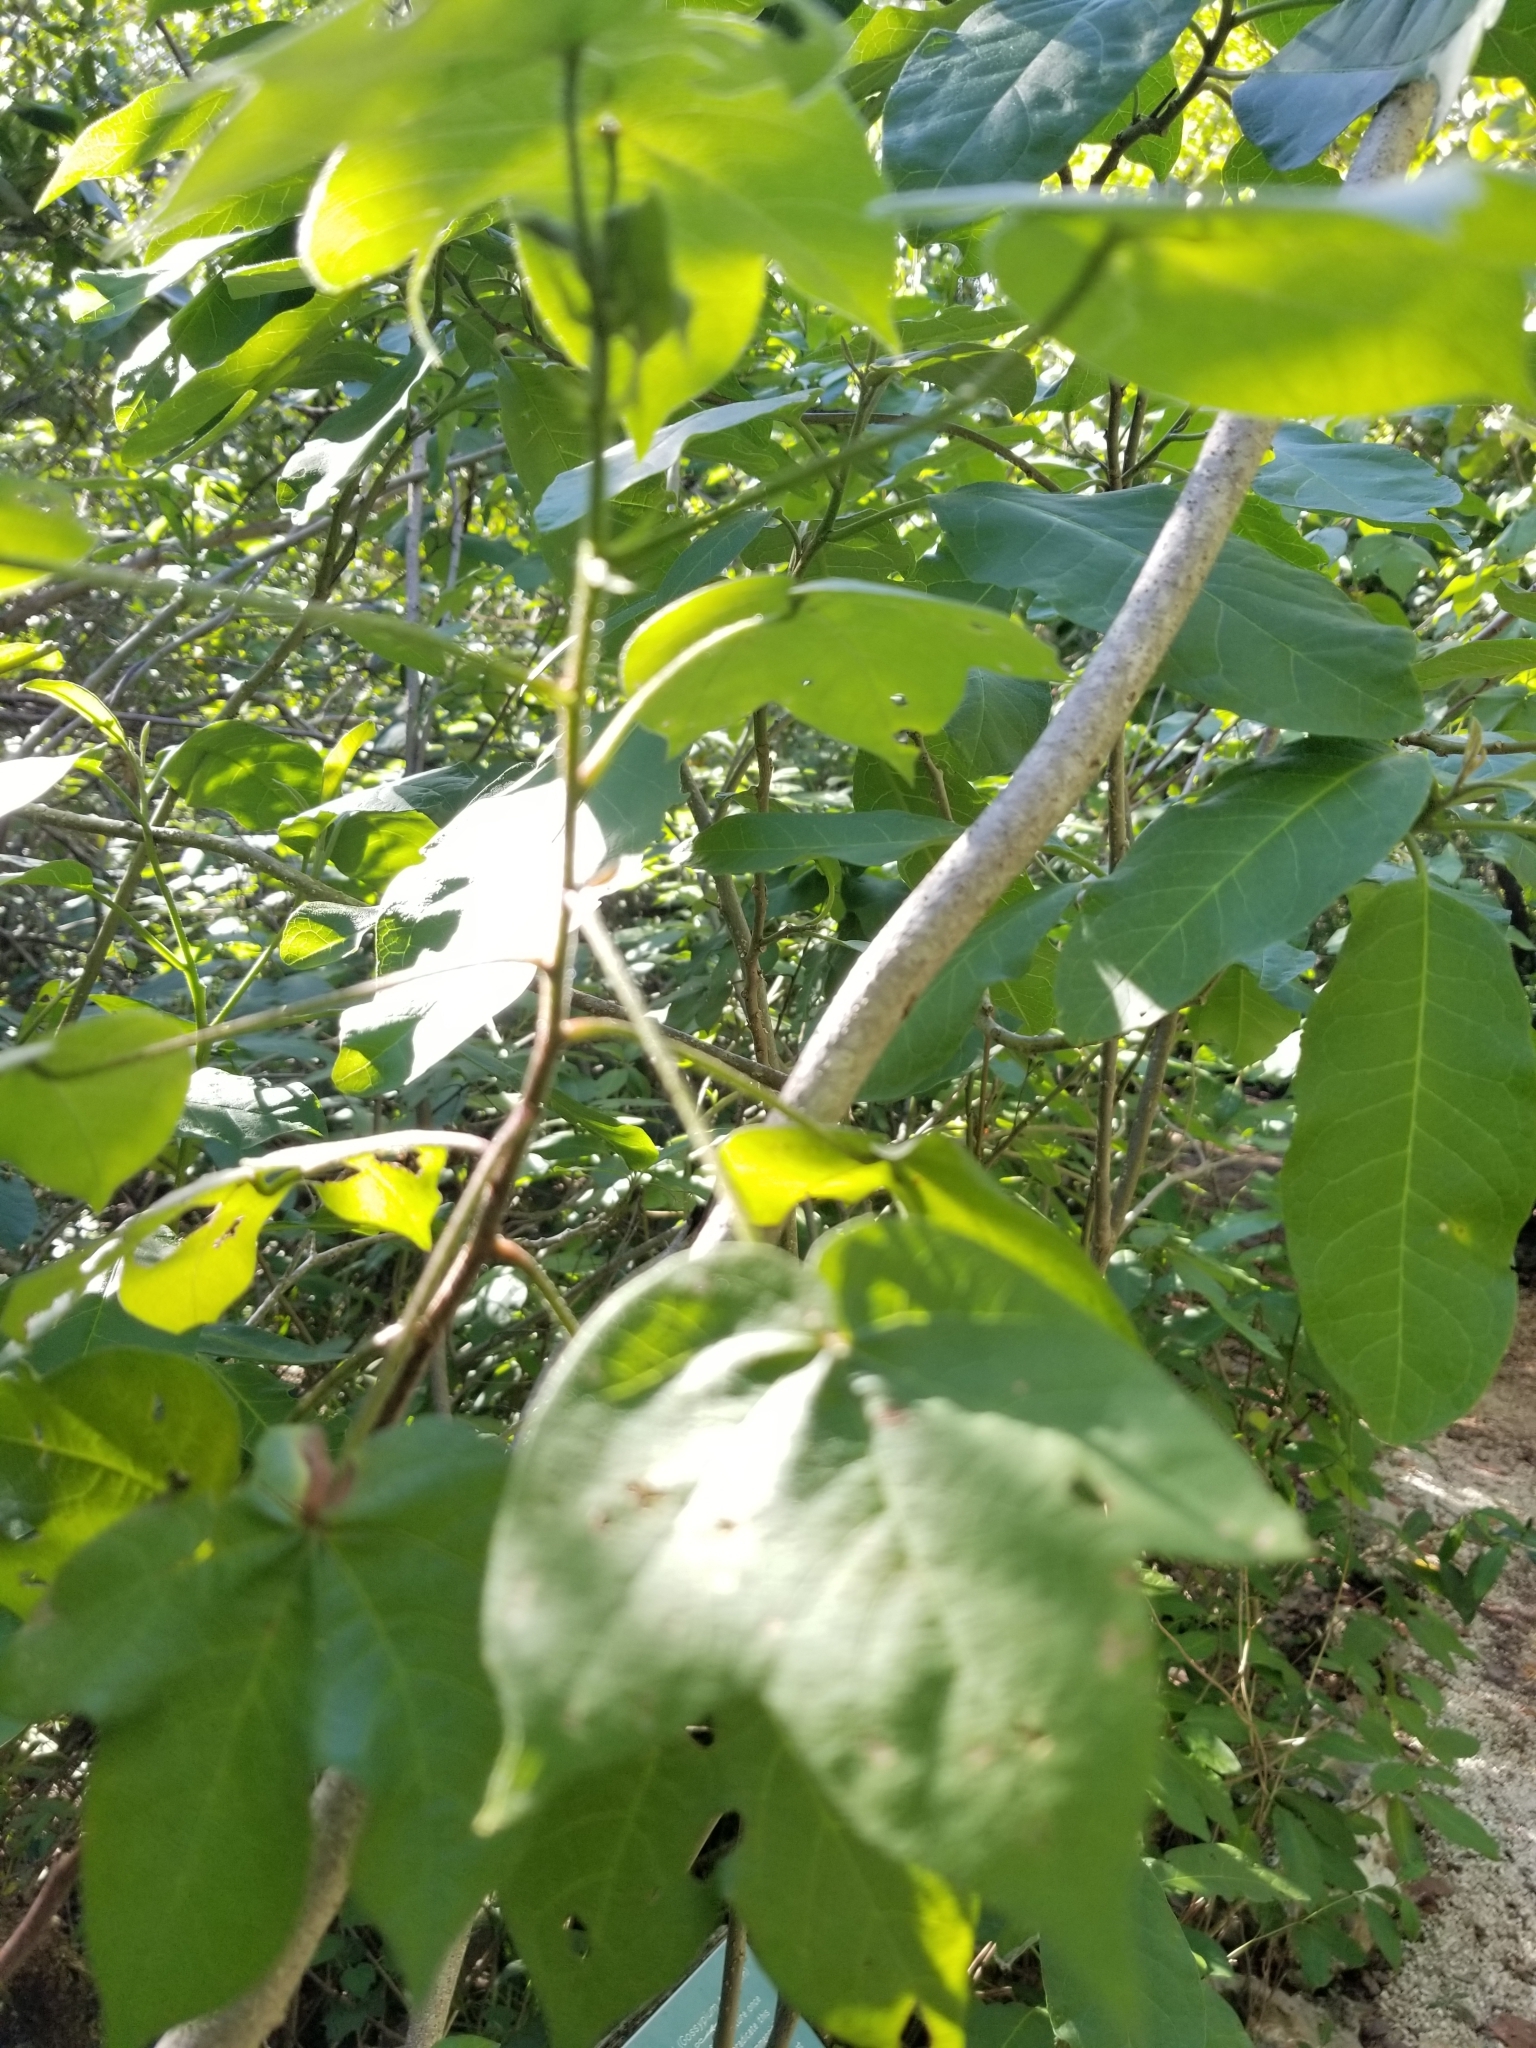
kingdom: Plantae
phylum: Tracheophyta
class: Magnoliopsida
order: Malvales
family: Malvaceae
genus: Gossypium
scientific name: Gossypium hirsutum
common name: Cotton
